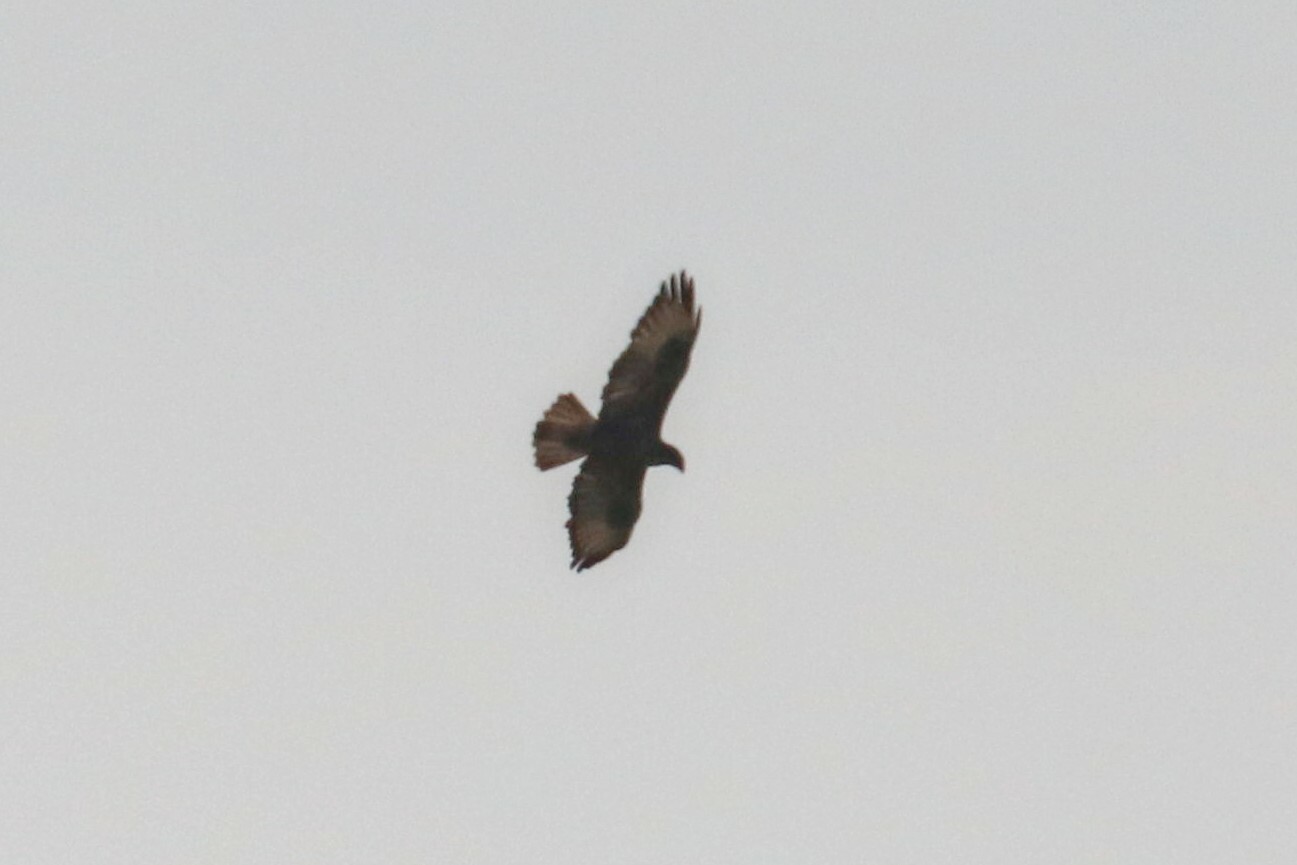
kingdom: Animalia
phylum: Chordata
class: Aves
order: Accipitriformes
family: Accipitridae
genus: Buteo
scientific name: Buteo buteo
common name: Common buzzard
